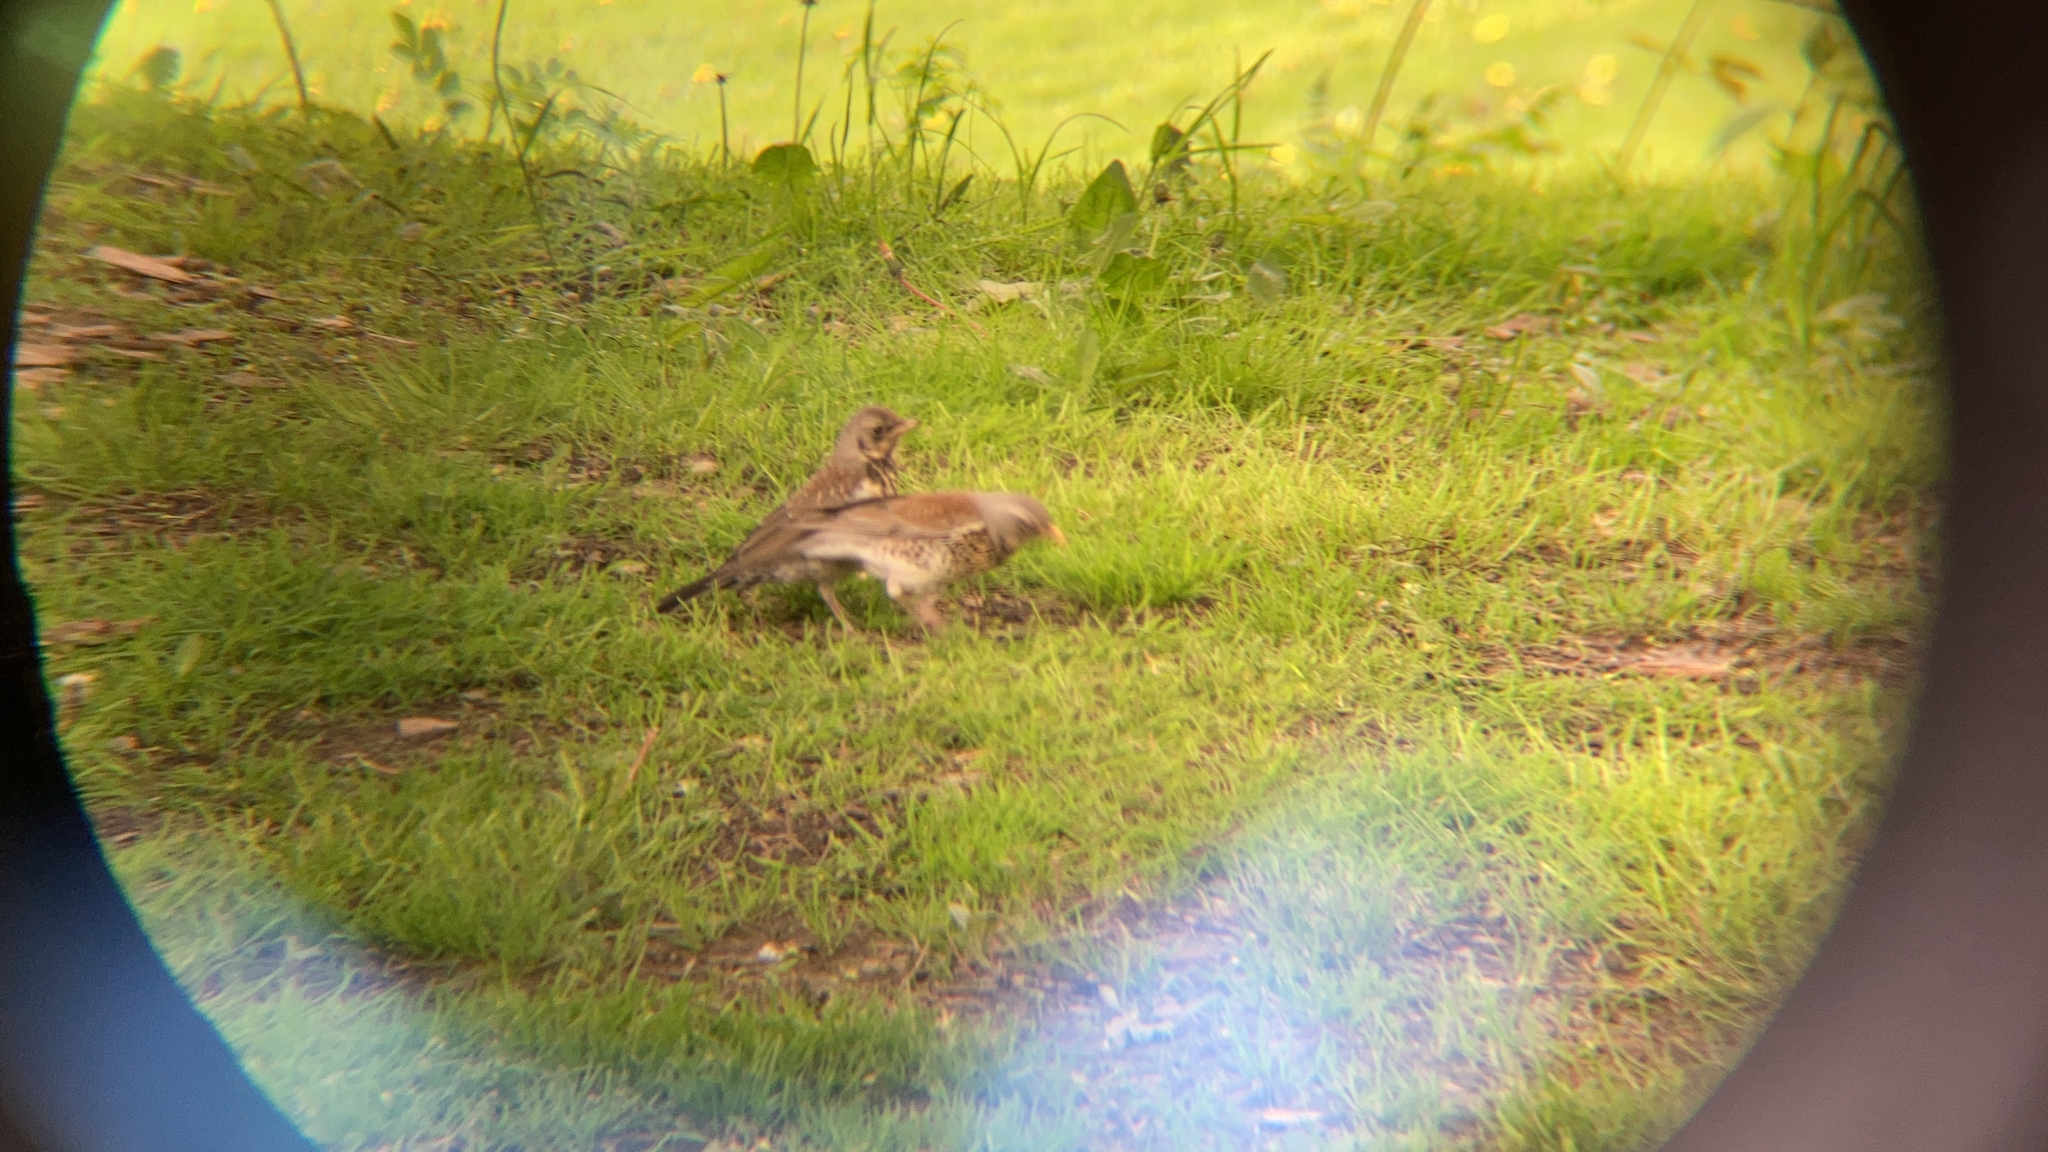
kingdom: Animalia
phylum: Chordata
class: Aves
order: Passeriformes
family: Turdidae
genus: Turdus
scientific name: Turdus pilaris
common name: Fieldfare
